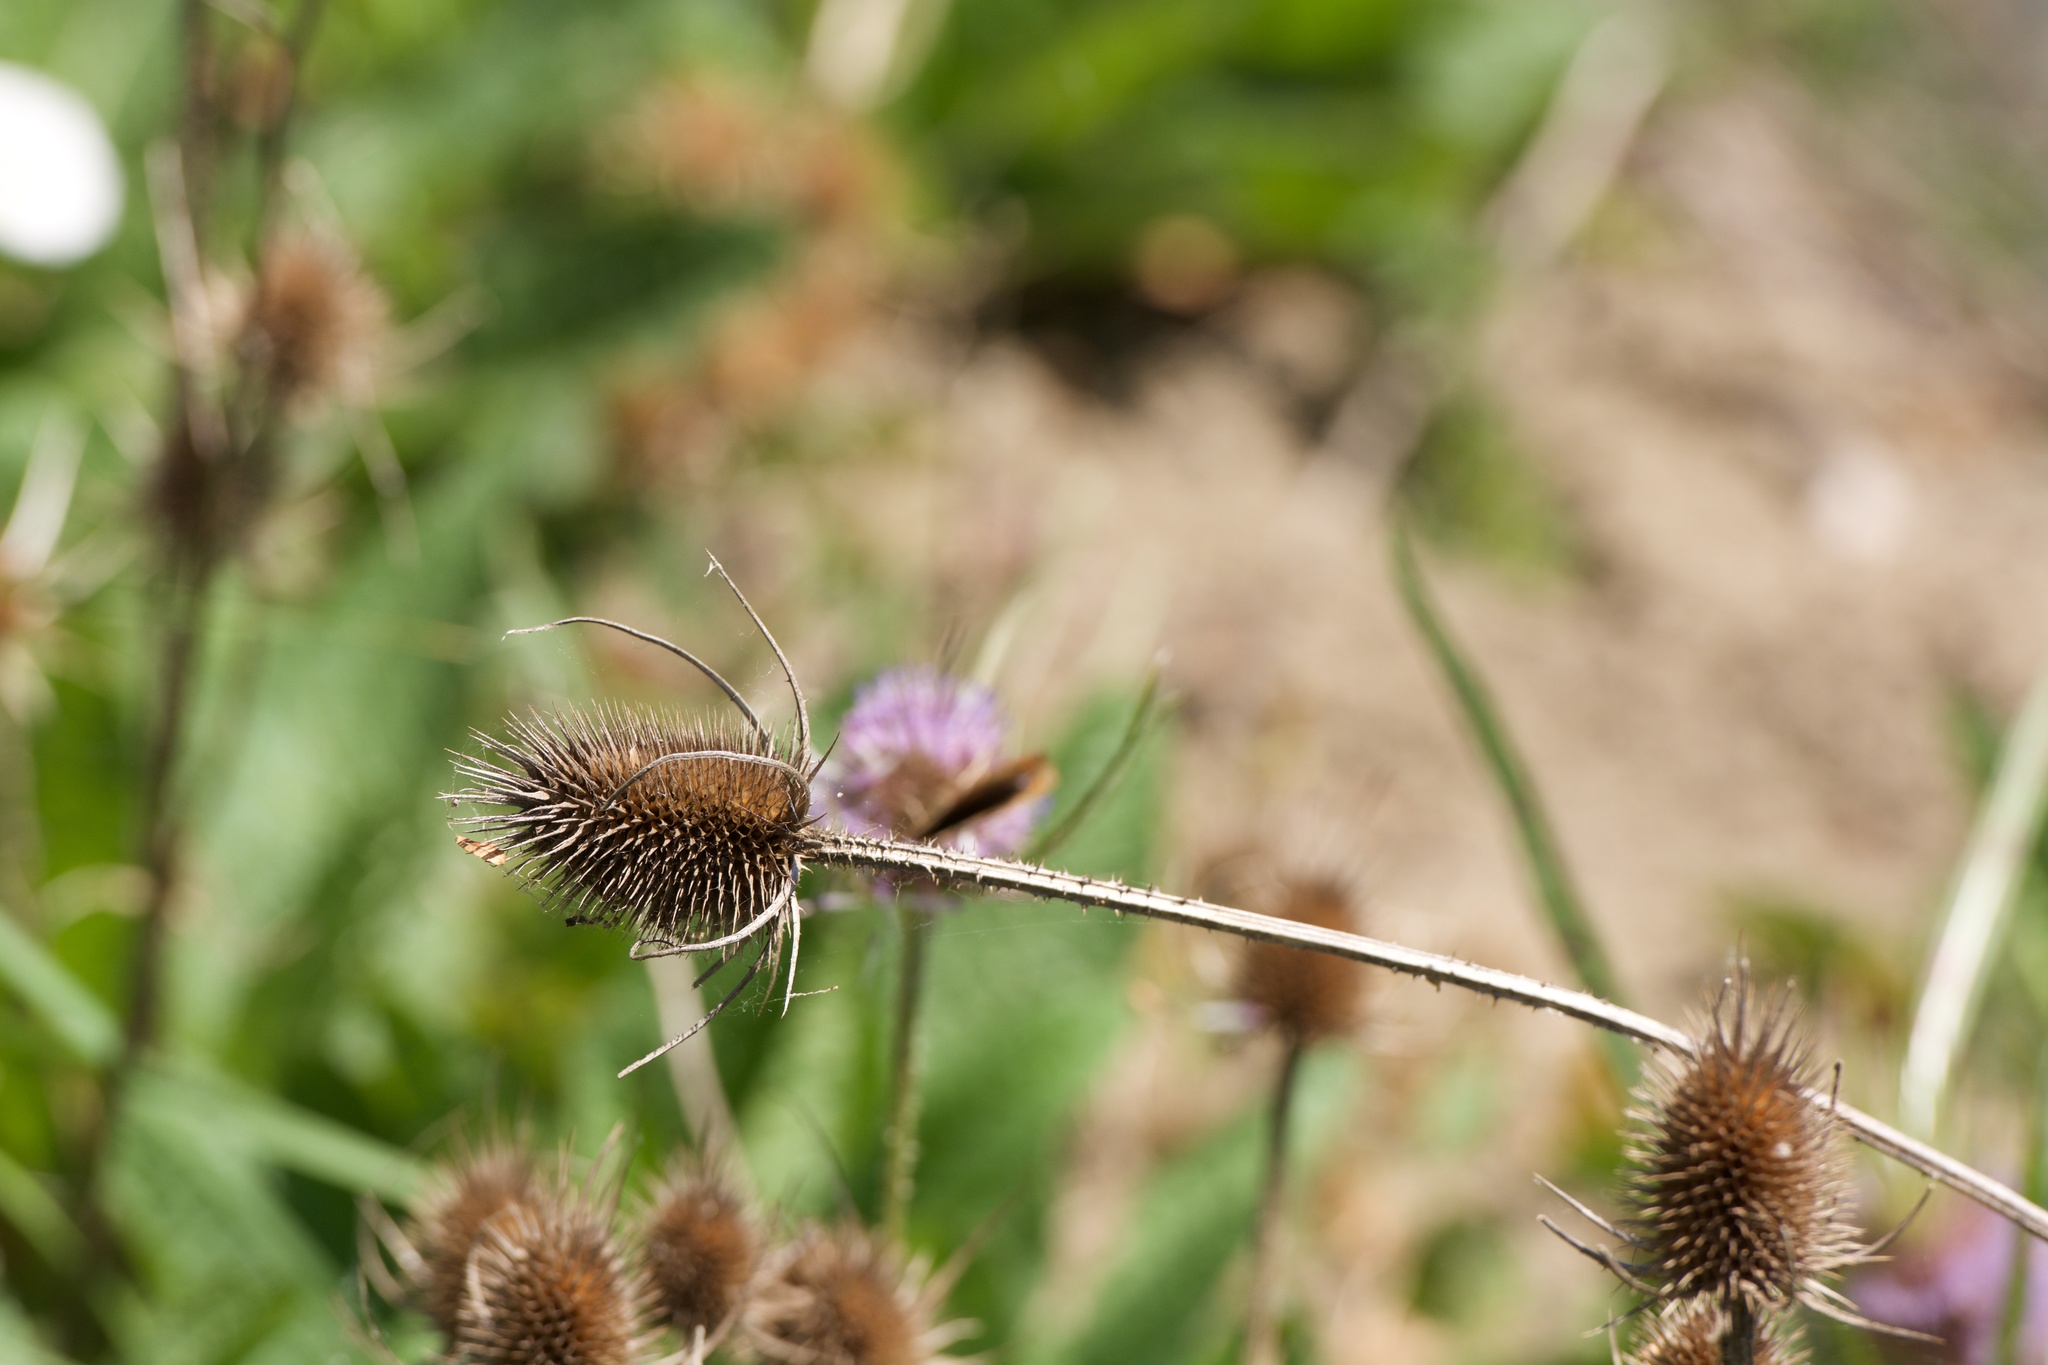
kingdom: Plantae
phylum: Tracheophyta
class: Magnoliopsida
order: Dipsacales
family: Caprifoliaceae
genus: Dipsacus
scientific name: Dipsacus fullonum
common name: Teasel
